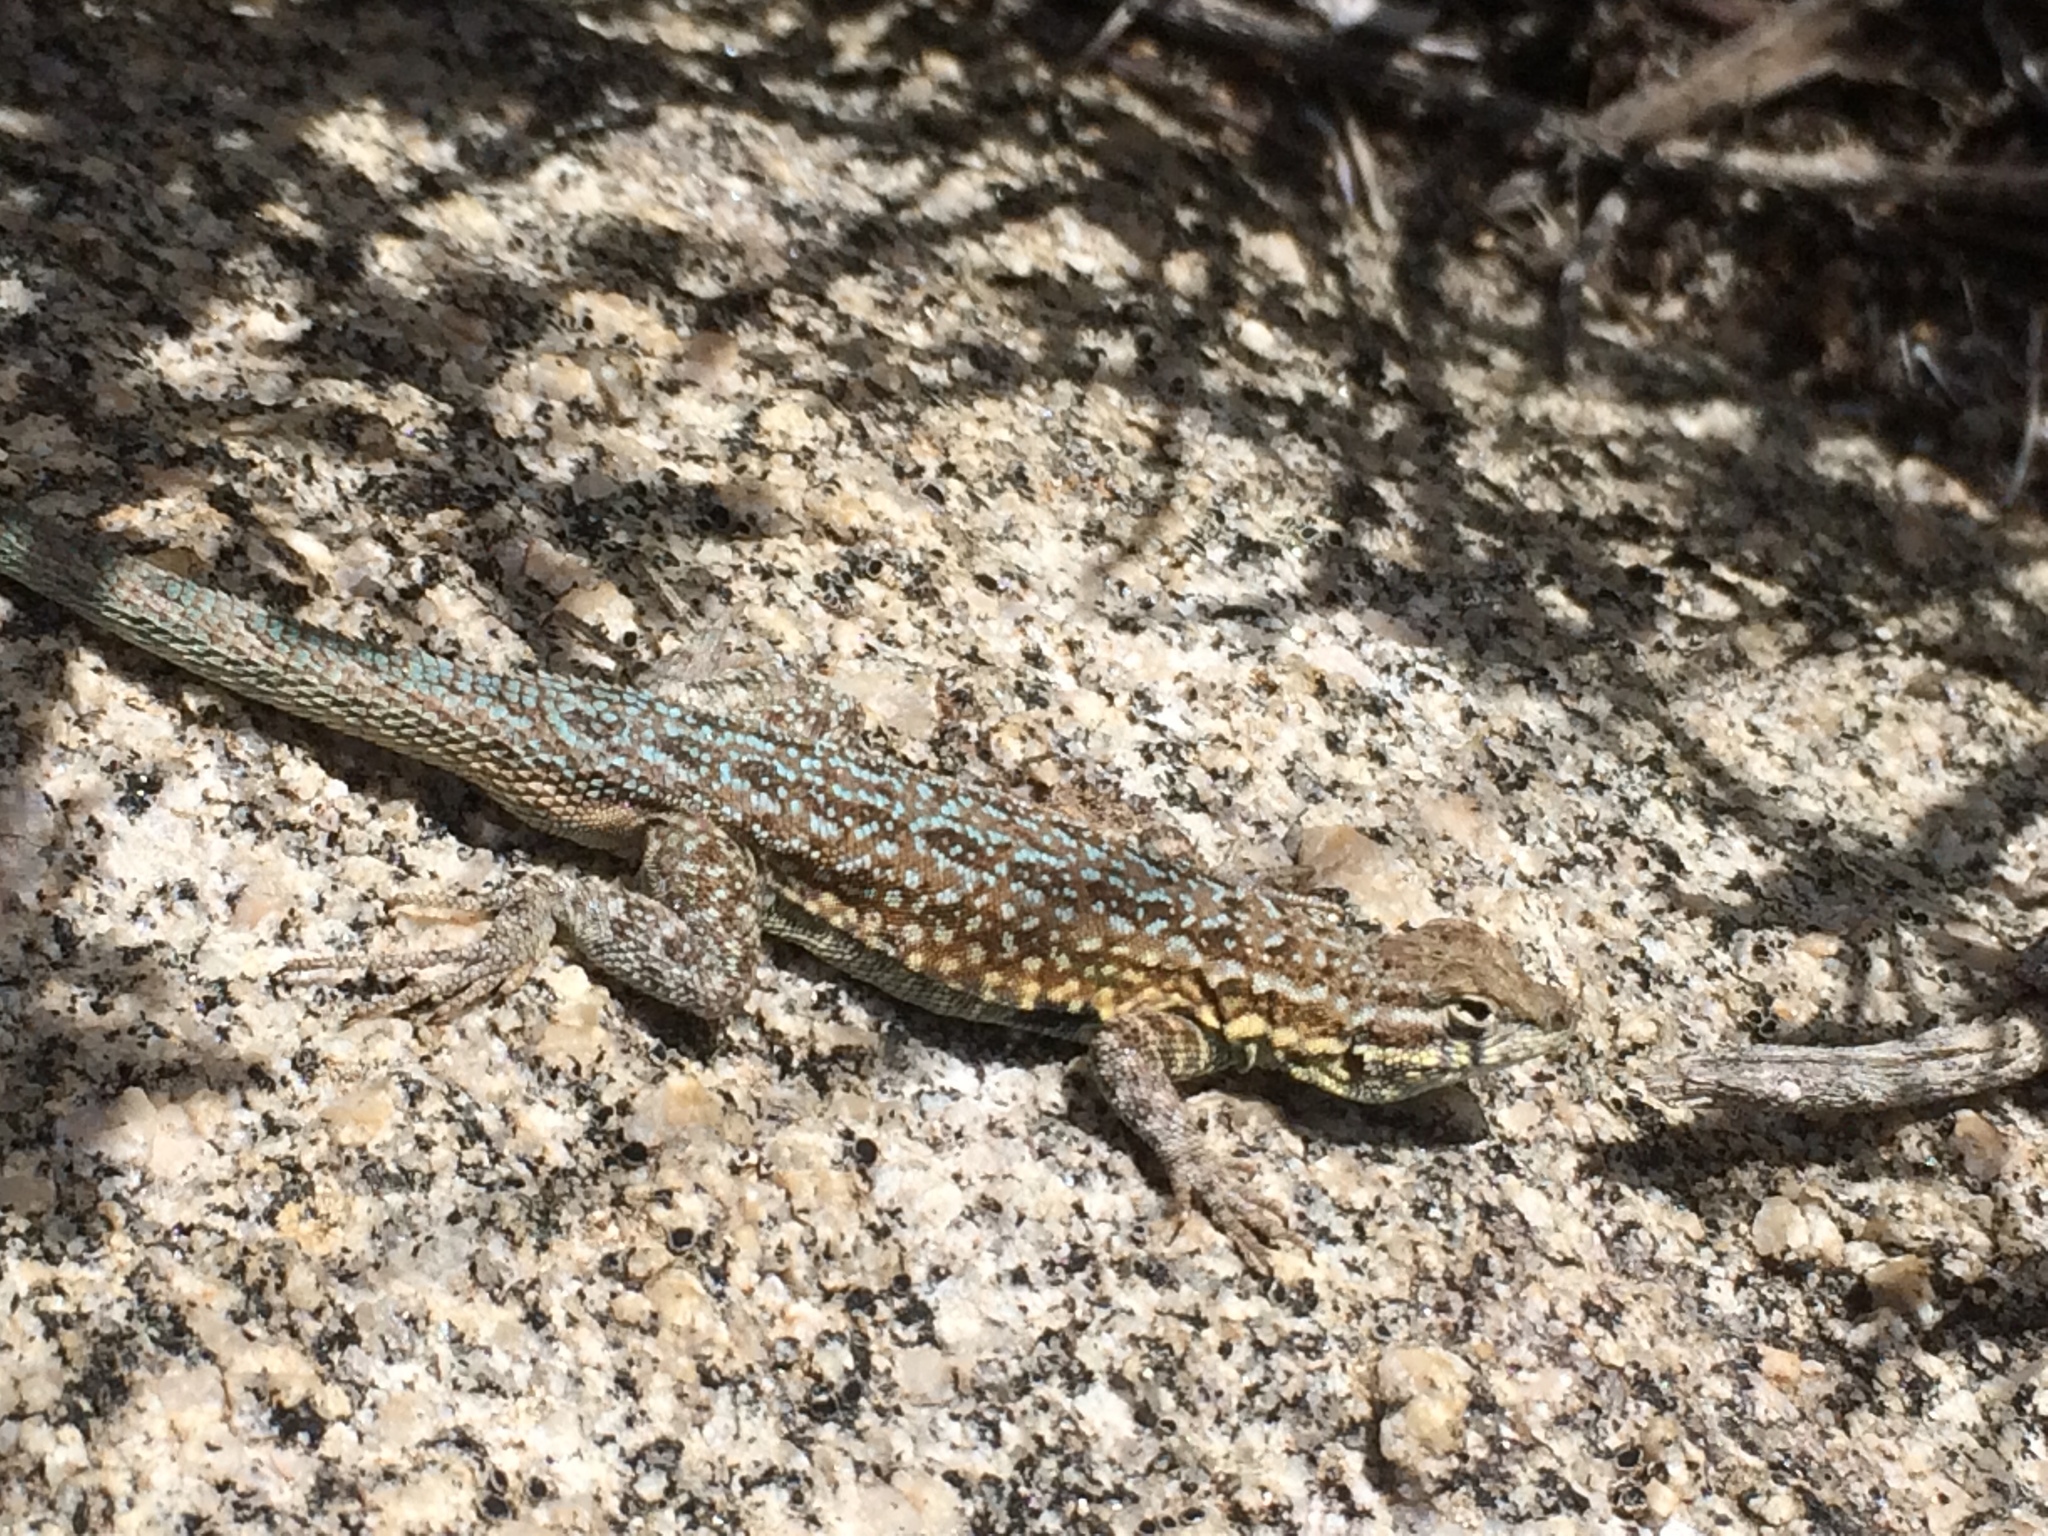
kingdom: Animalia
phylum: Chordata
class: Squamata
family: Phrynosomatidae
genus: Uta
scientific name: Uta stansburiana
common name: Side-blotched lizard
